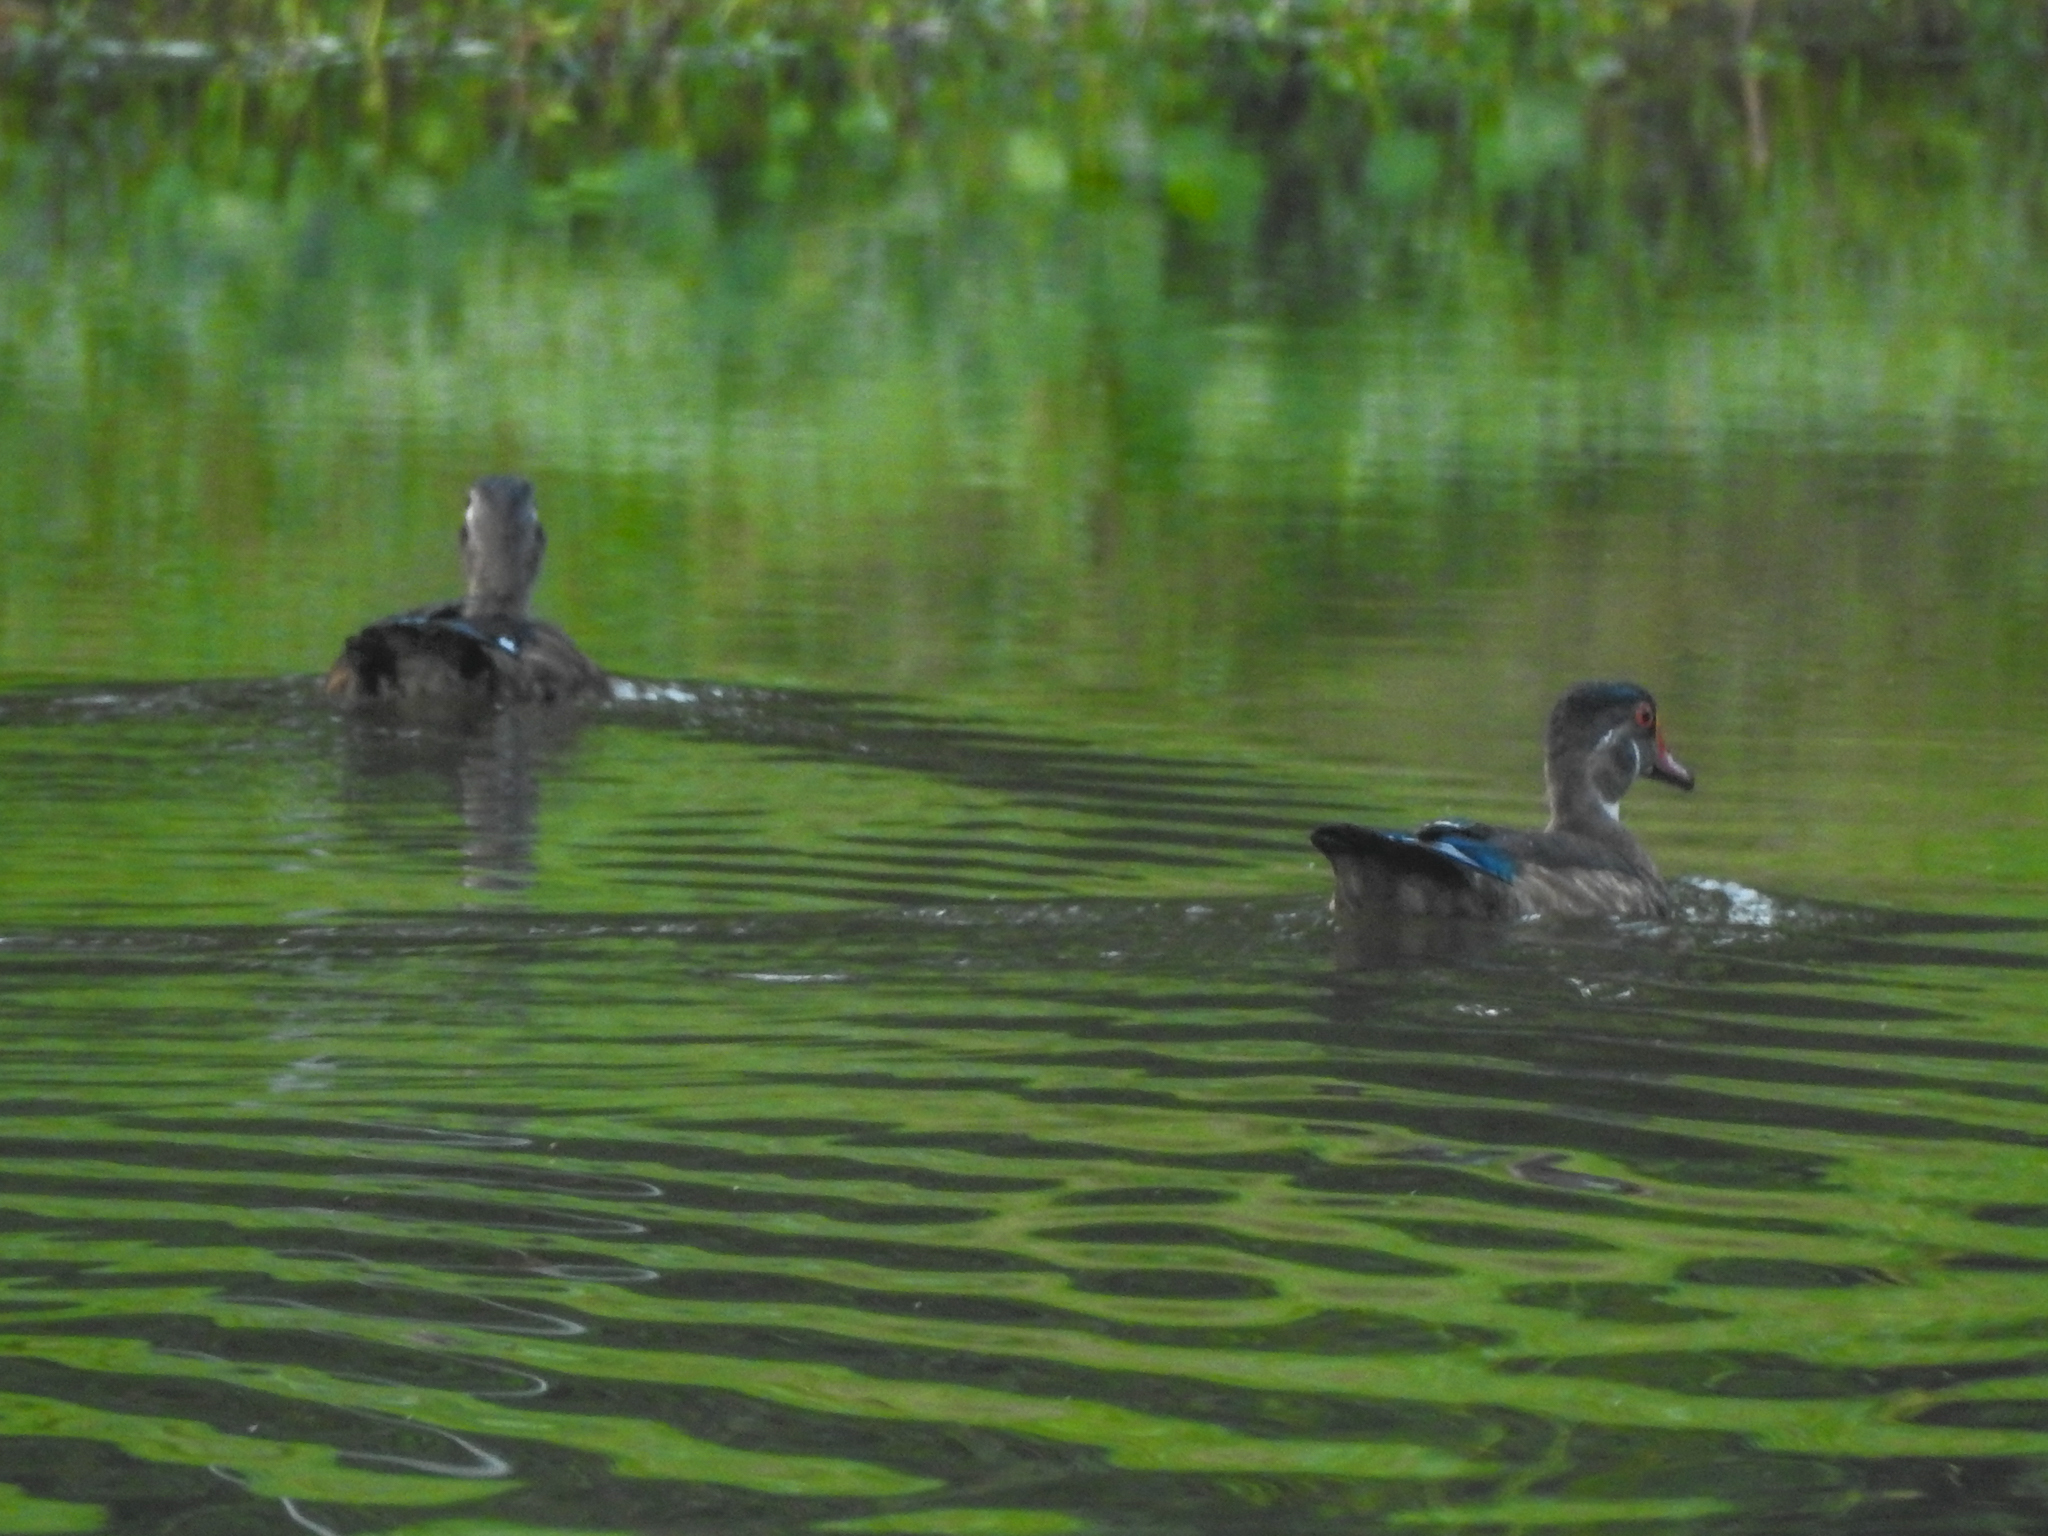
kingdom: Animalia
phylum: Chordata
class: Aves
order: Anseriformes
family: Anatidae
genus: Aix
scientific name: Aix sponsa
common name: Wood duck
